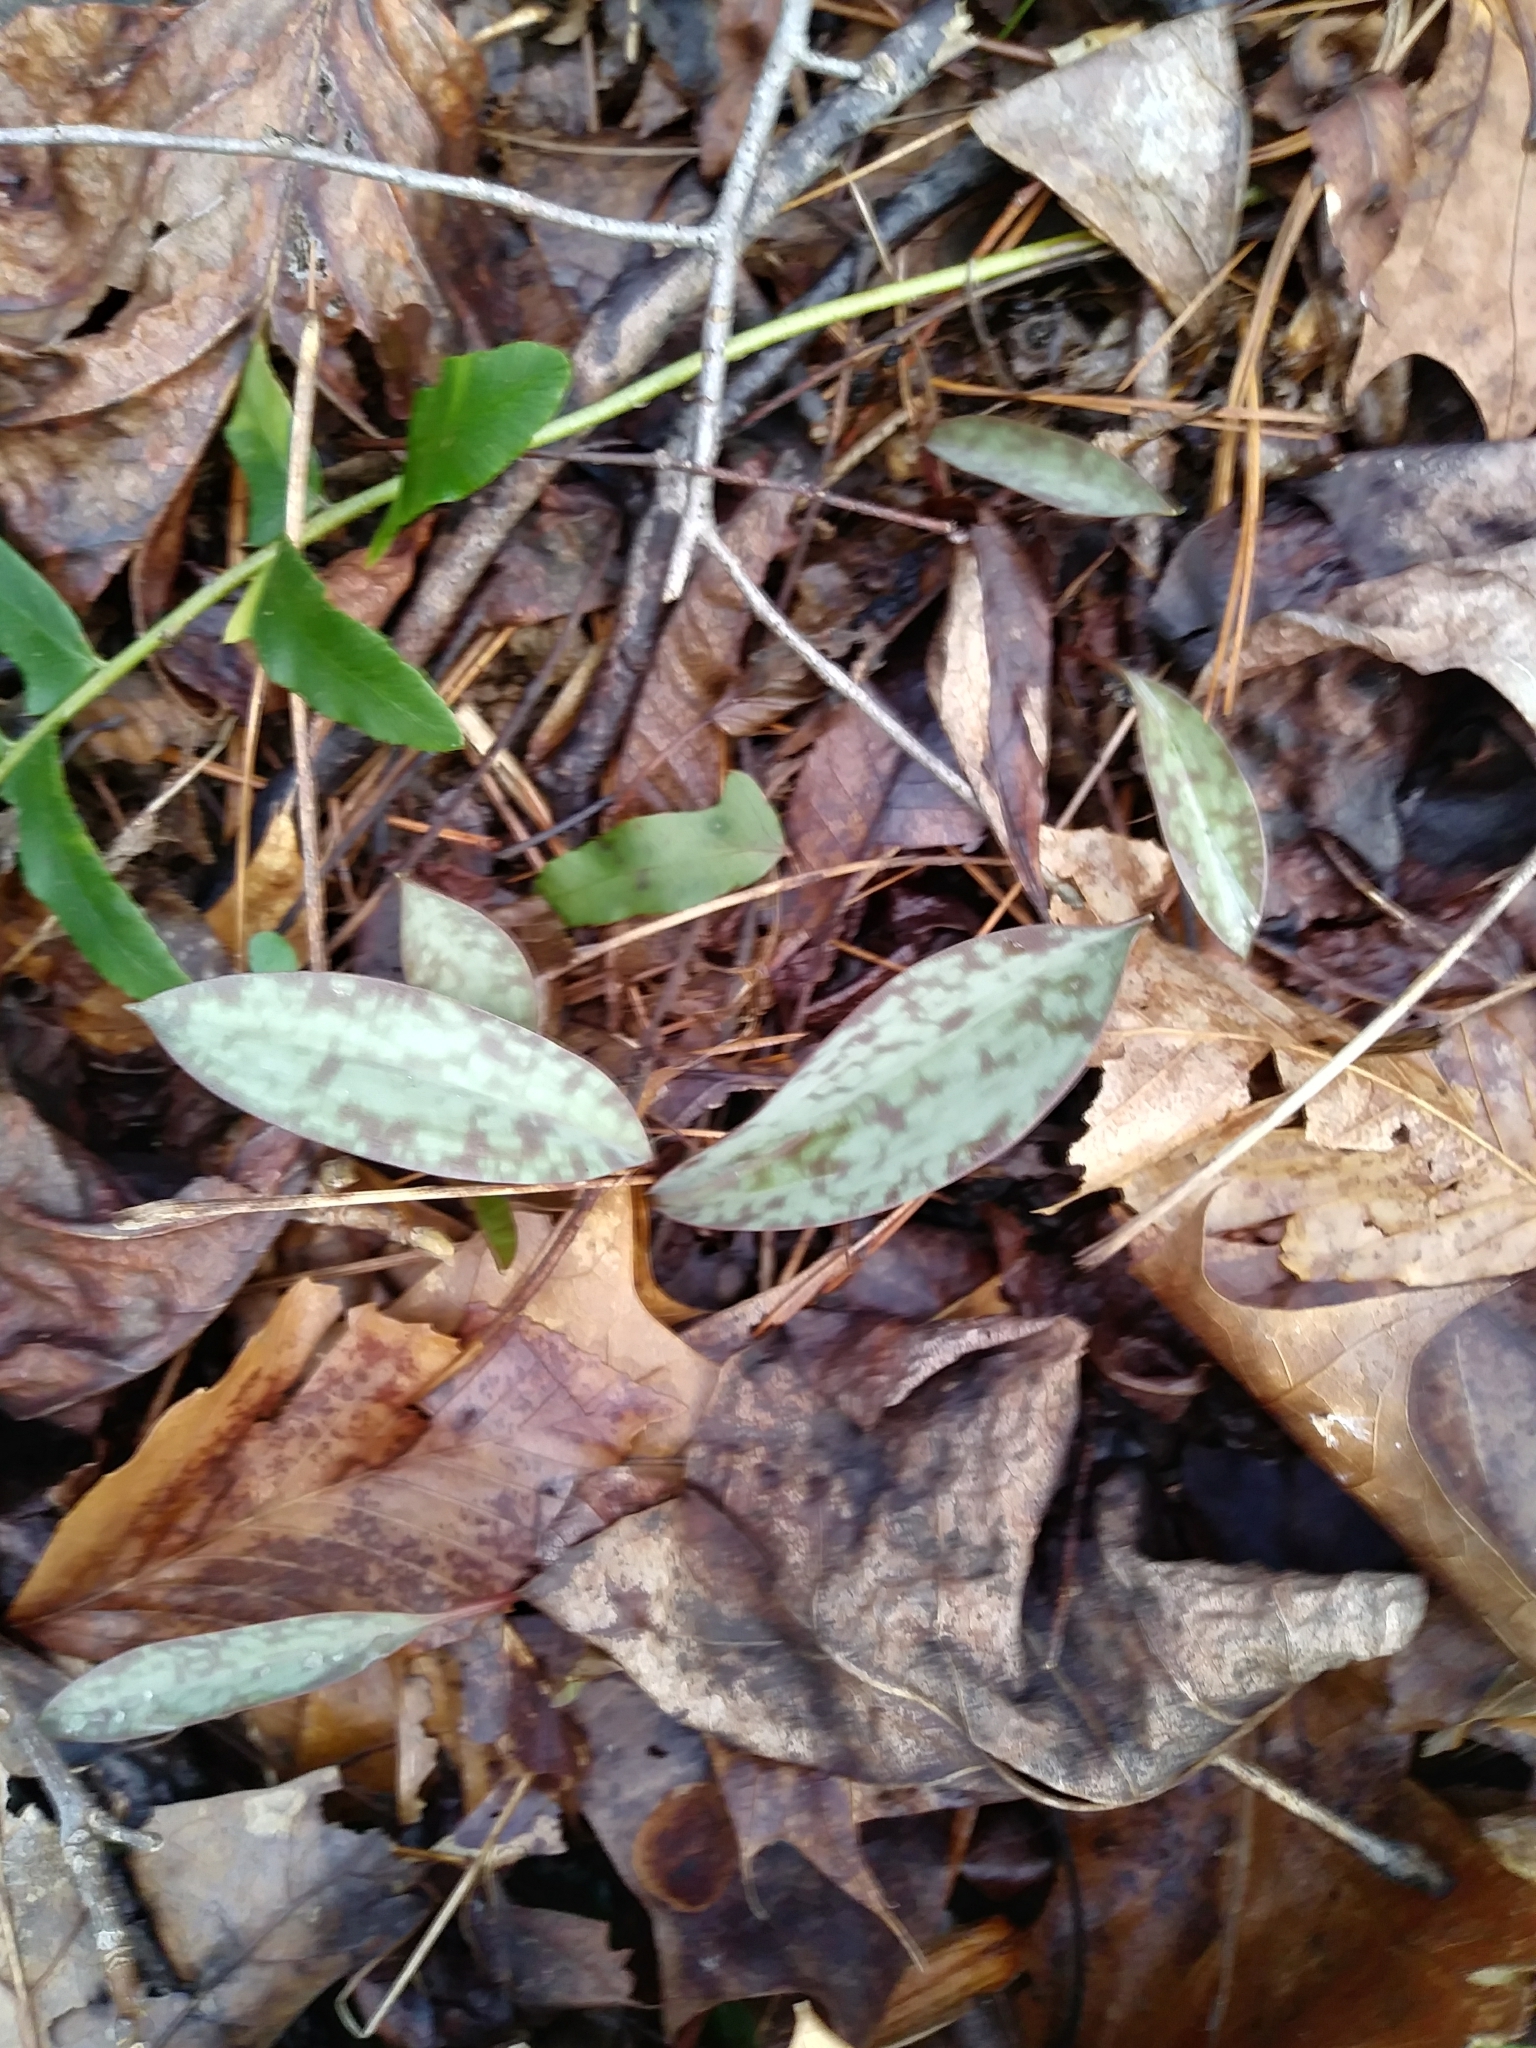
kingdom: Plantae
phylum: Tracheophyta
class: Liliopsida
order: Liliales
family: Liliaceae
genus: Erythronium
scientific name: Erythronium americanum
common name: Yellow adder's-tongue
